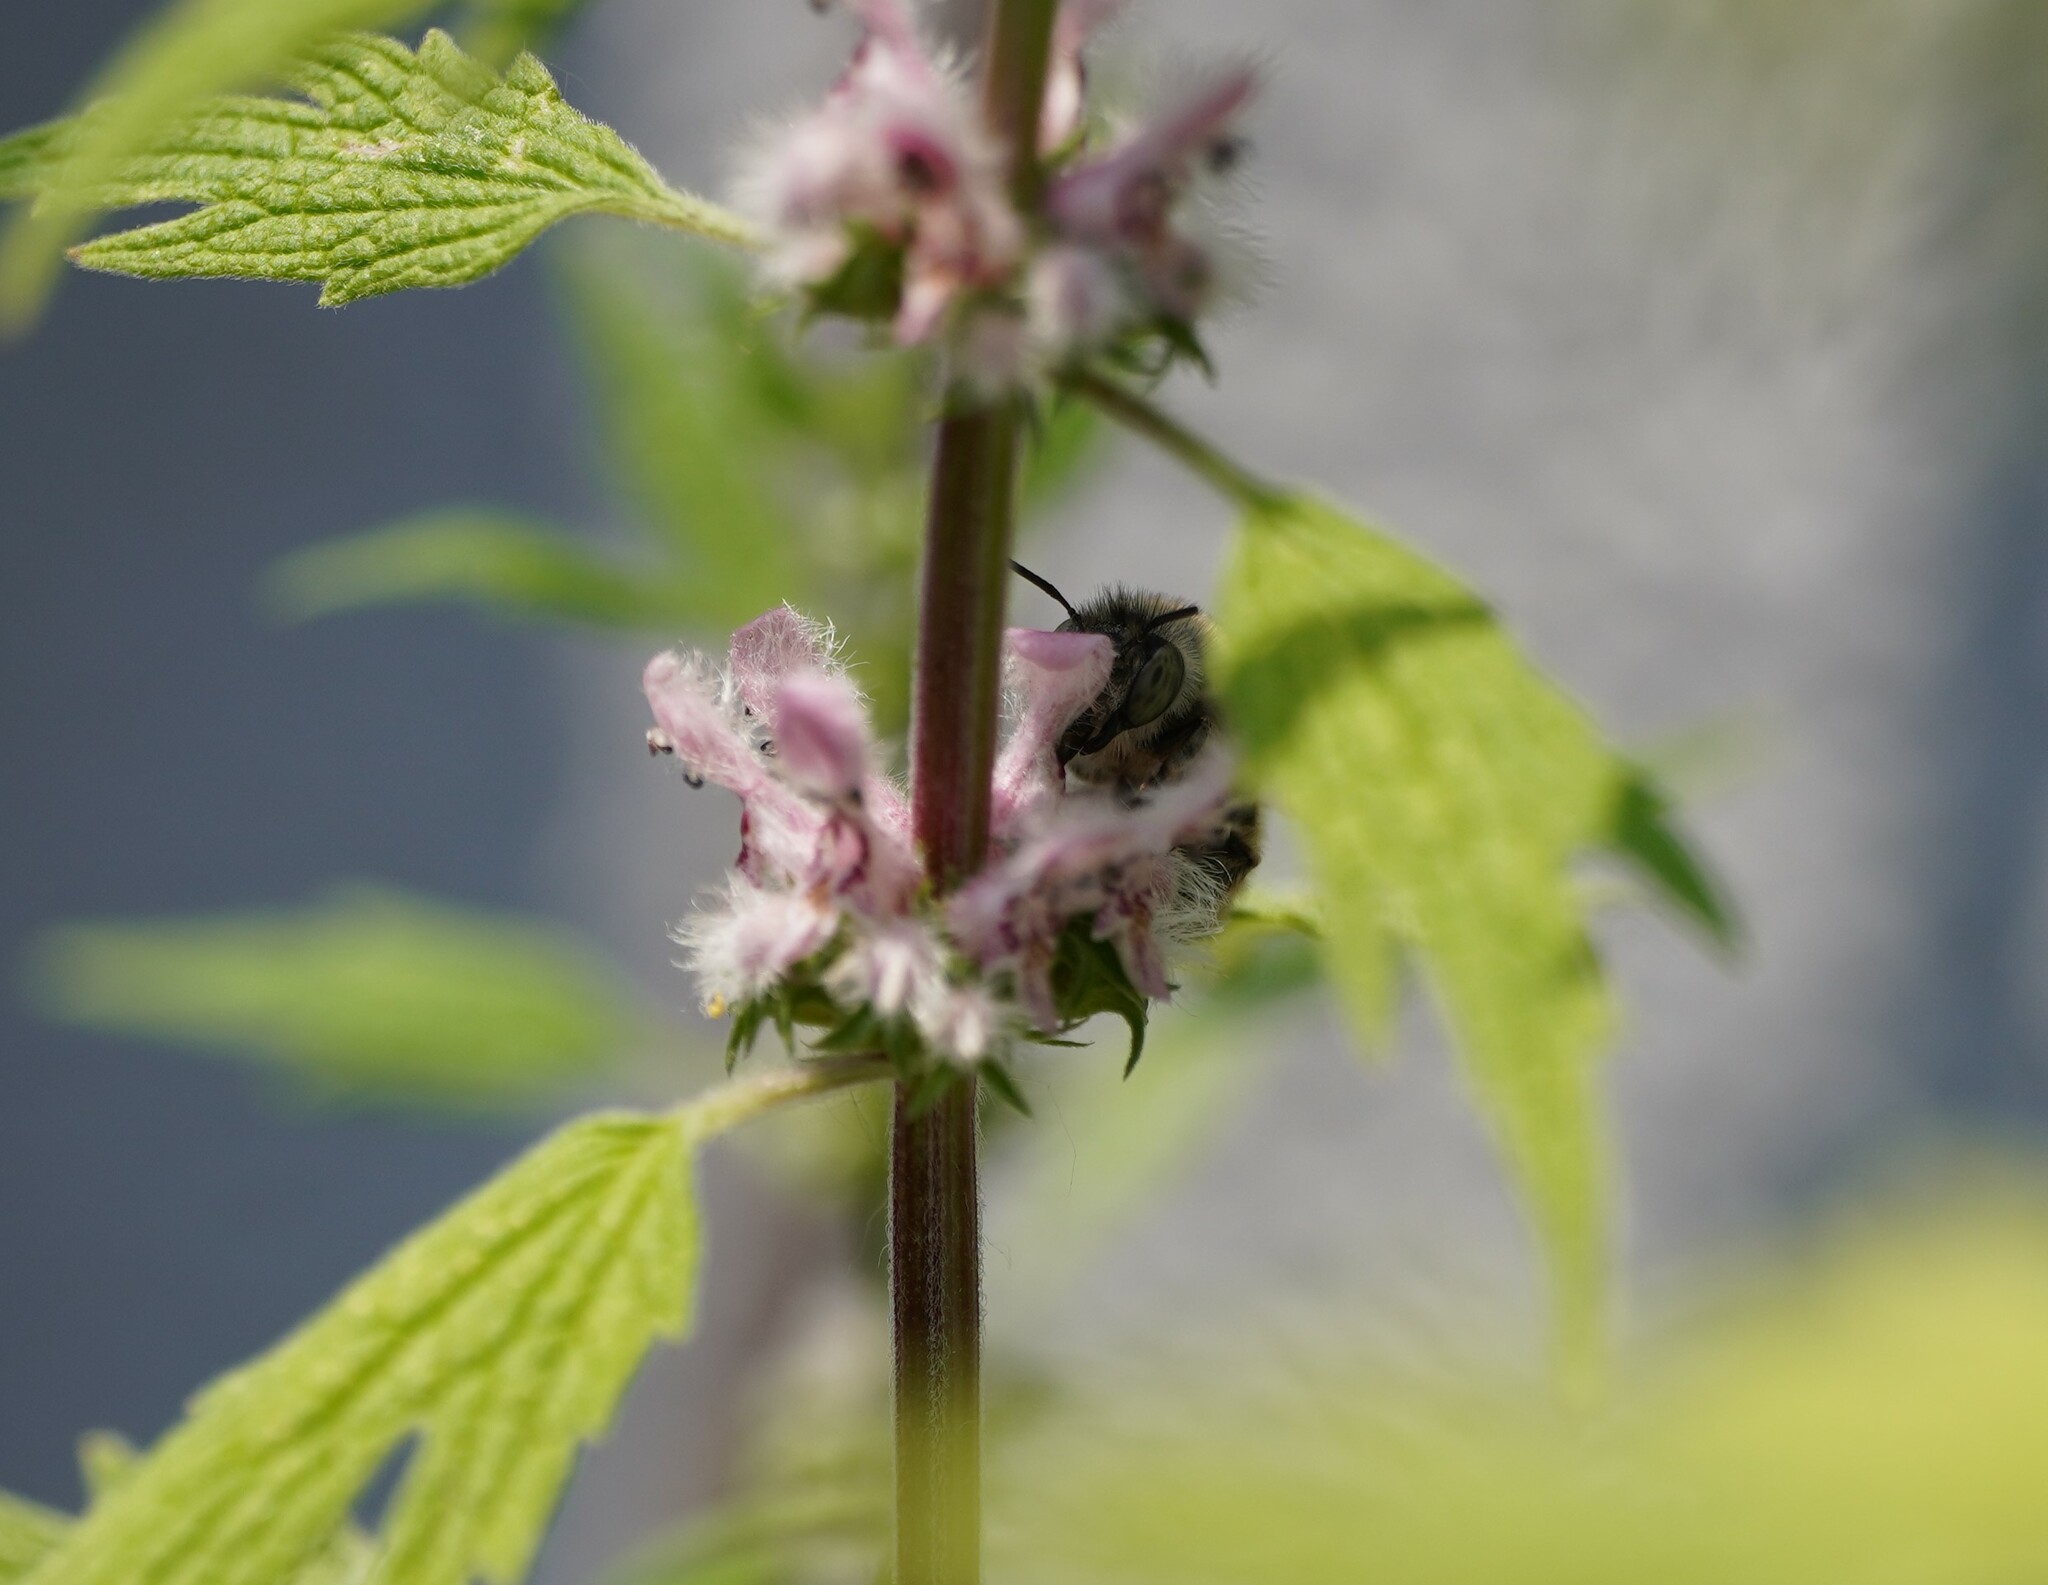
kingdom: Animalia
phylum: Arthropoda
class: Insecta
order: Hymenoptera
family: Apidae
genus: Anthophora
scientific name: Anthophora quadrimaculata
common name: Four-banded flower bee
